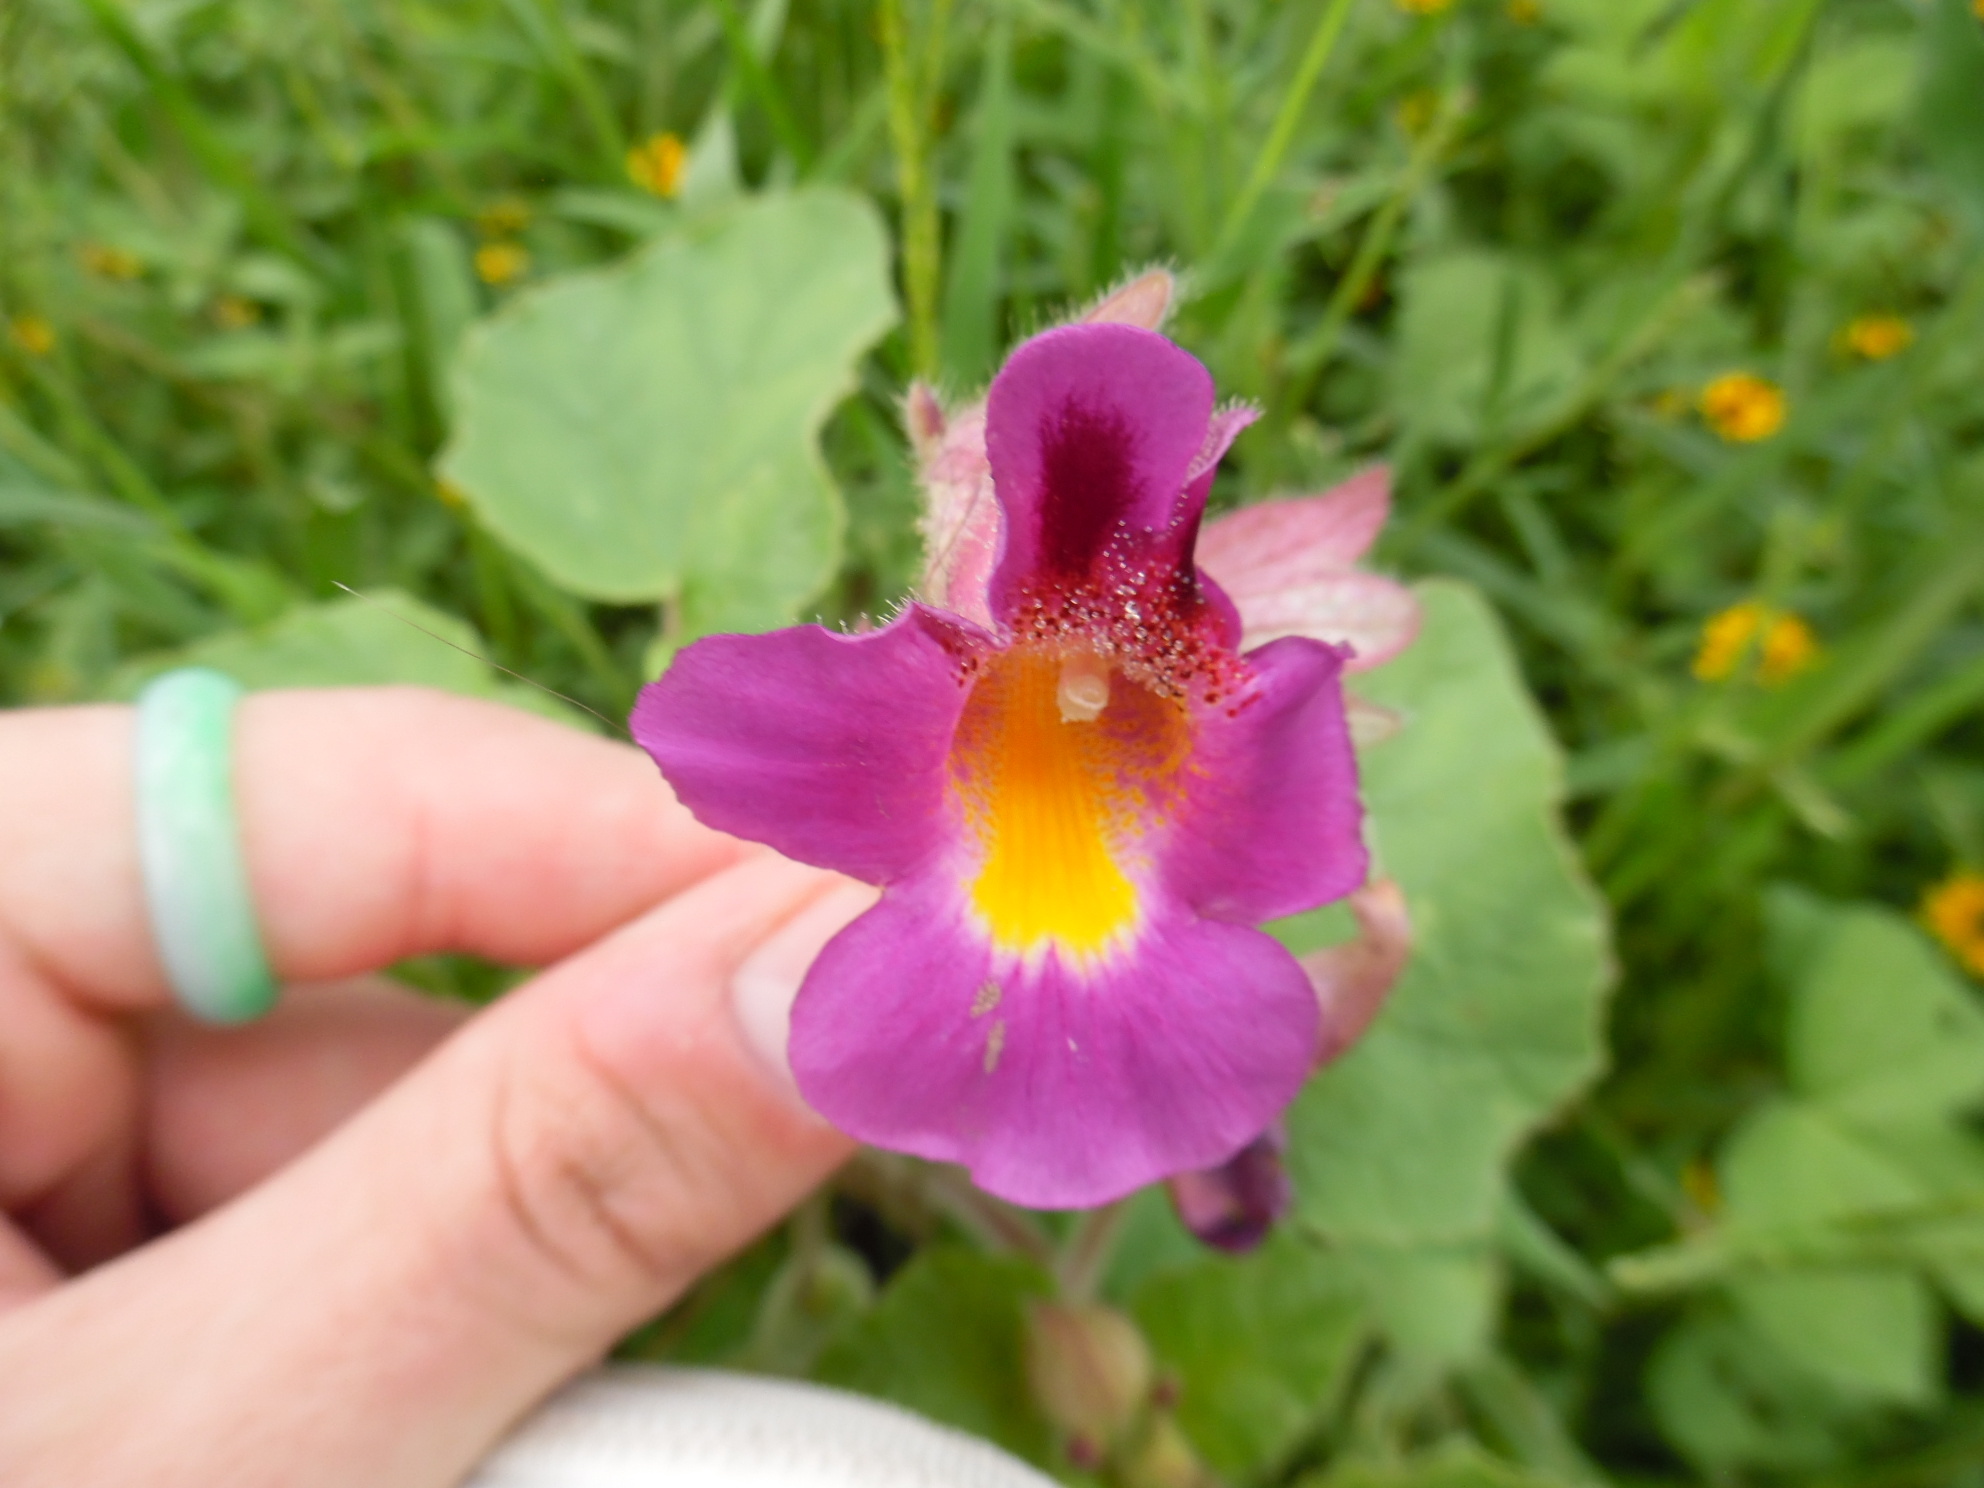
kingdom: Plantae
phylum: Tracheophyta
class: Magnoliopsida
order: Lamiales
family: Martyniaceae
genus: Proboscidea
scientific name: Proboscidea parviflora
